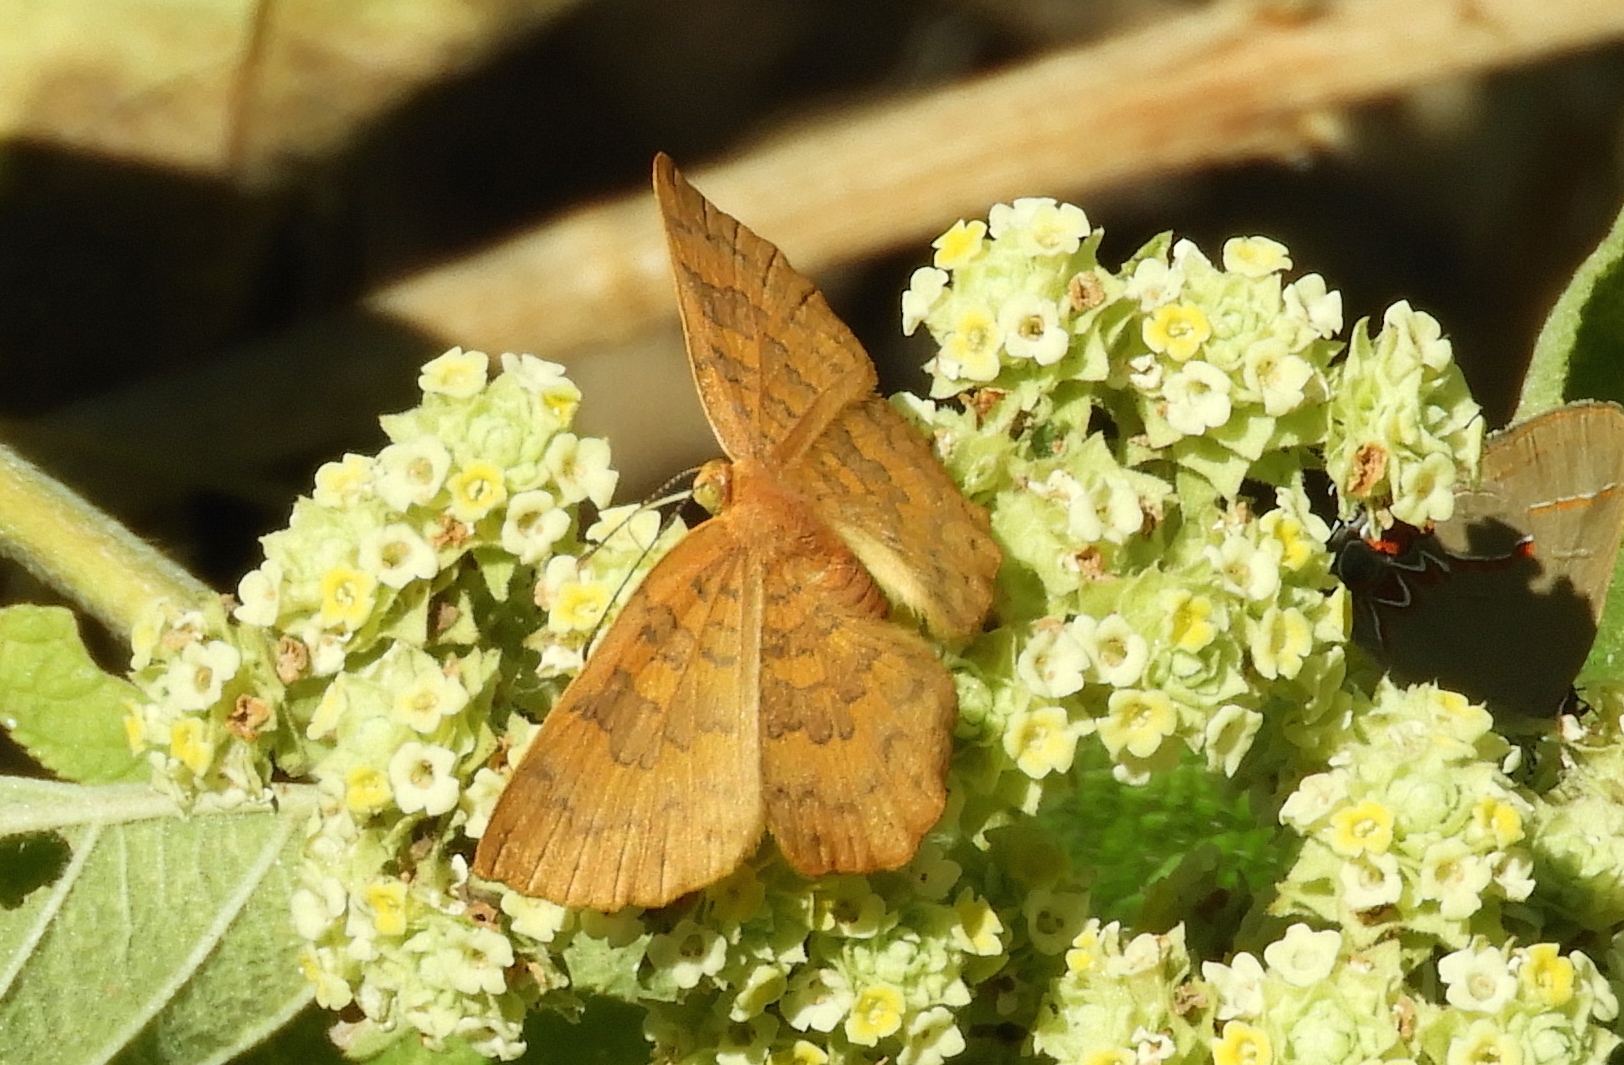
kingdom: Animalia
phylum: Arthropoda
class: Insecta
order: Lepidoptera
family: Lycaenidae
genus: Emesis
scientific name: Emesis
